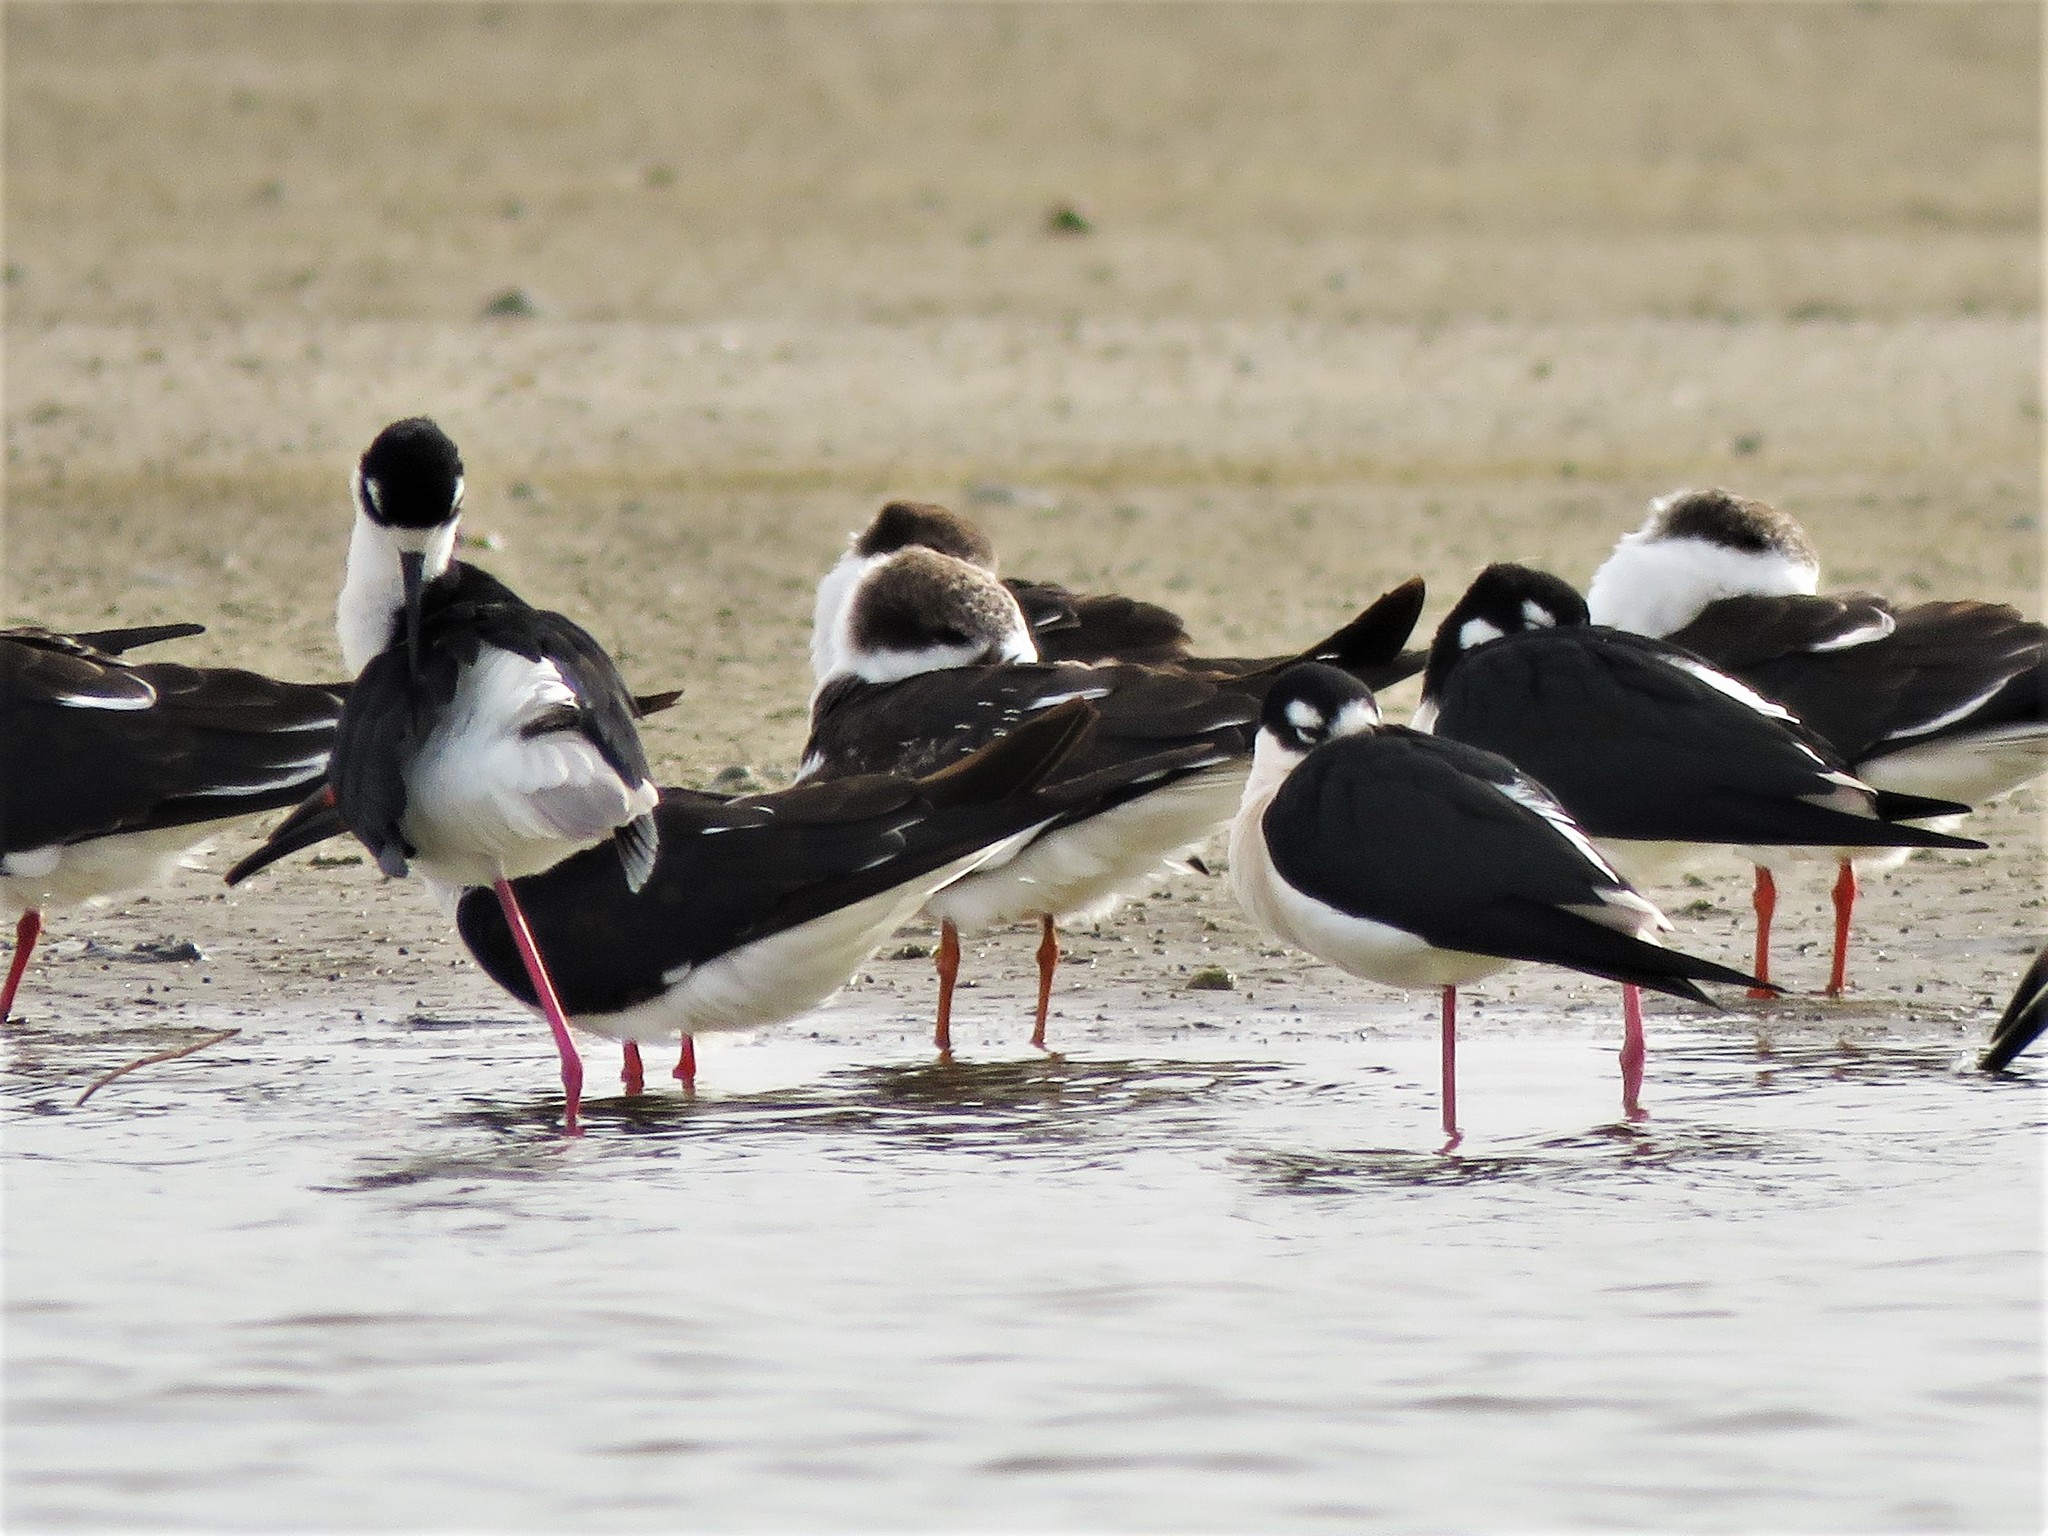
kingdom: Animalia
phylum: Chordata
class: Aves
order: Charadriiformes
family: Recurvirostridae
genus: Himantopus
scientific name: Himantopus mexicanus
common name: Black-necked stilt
